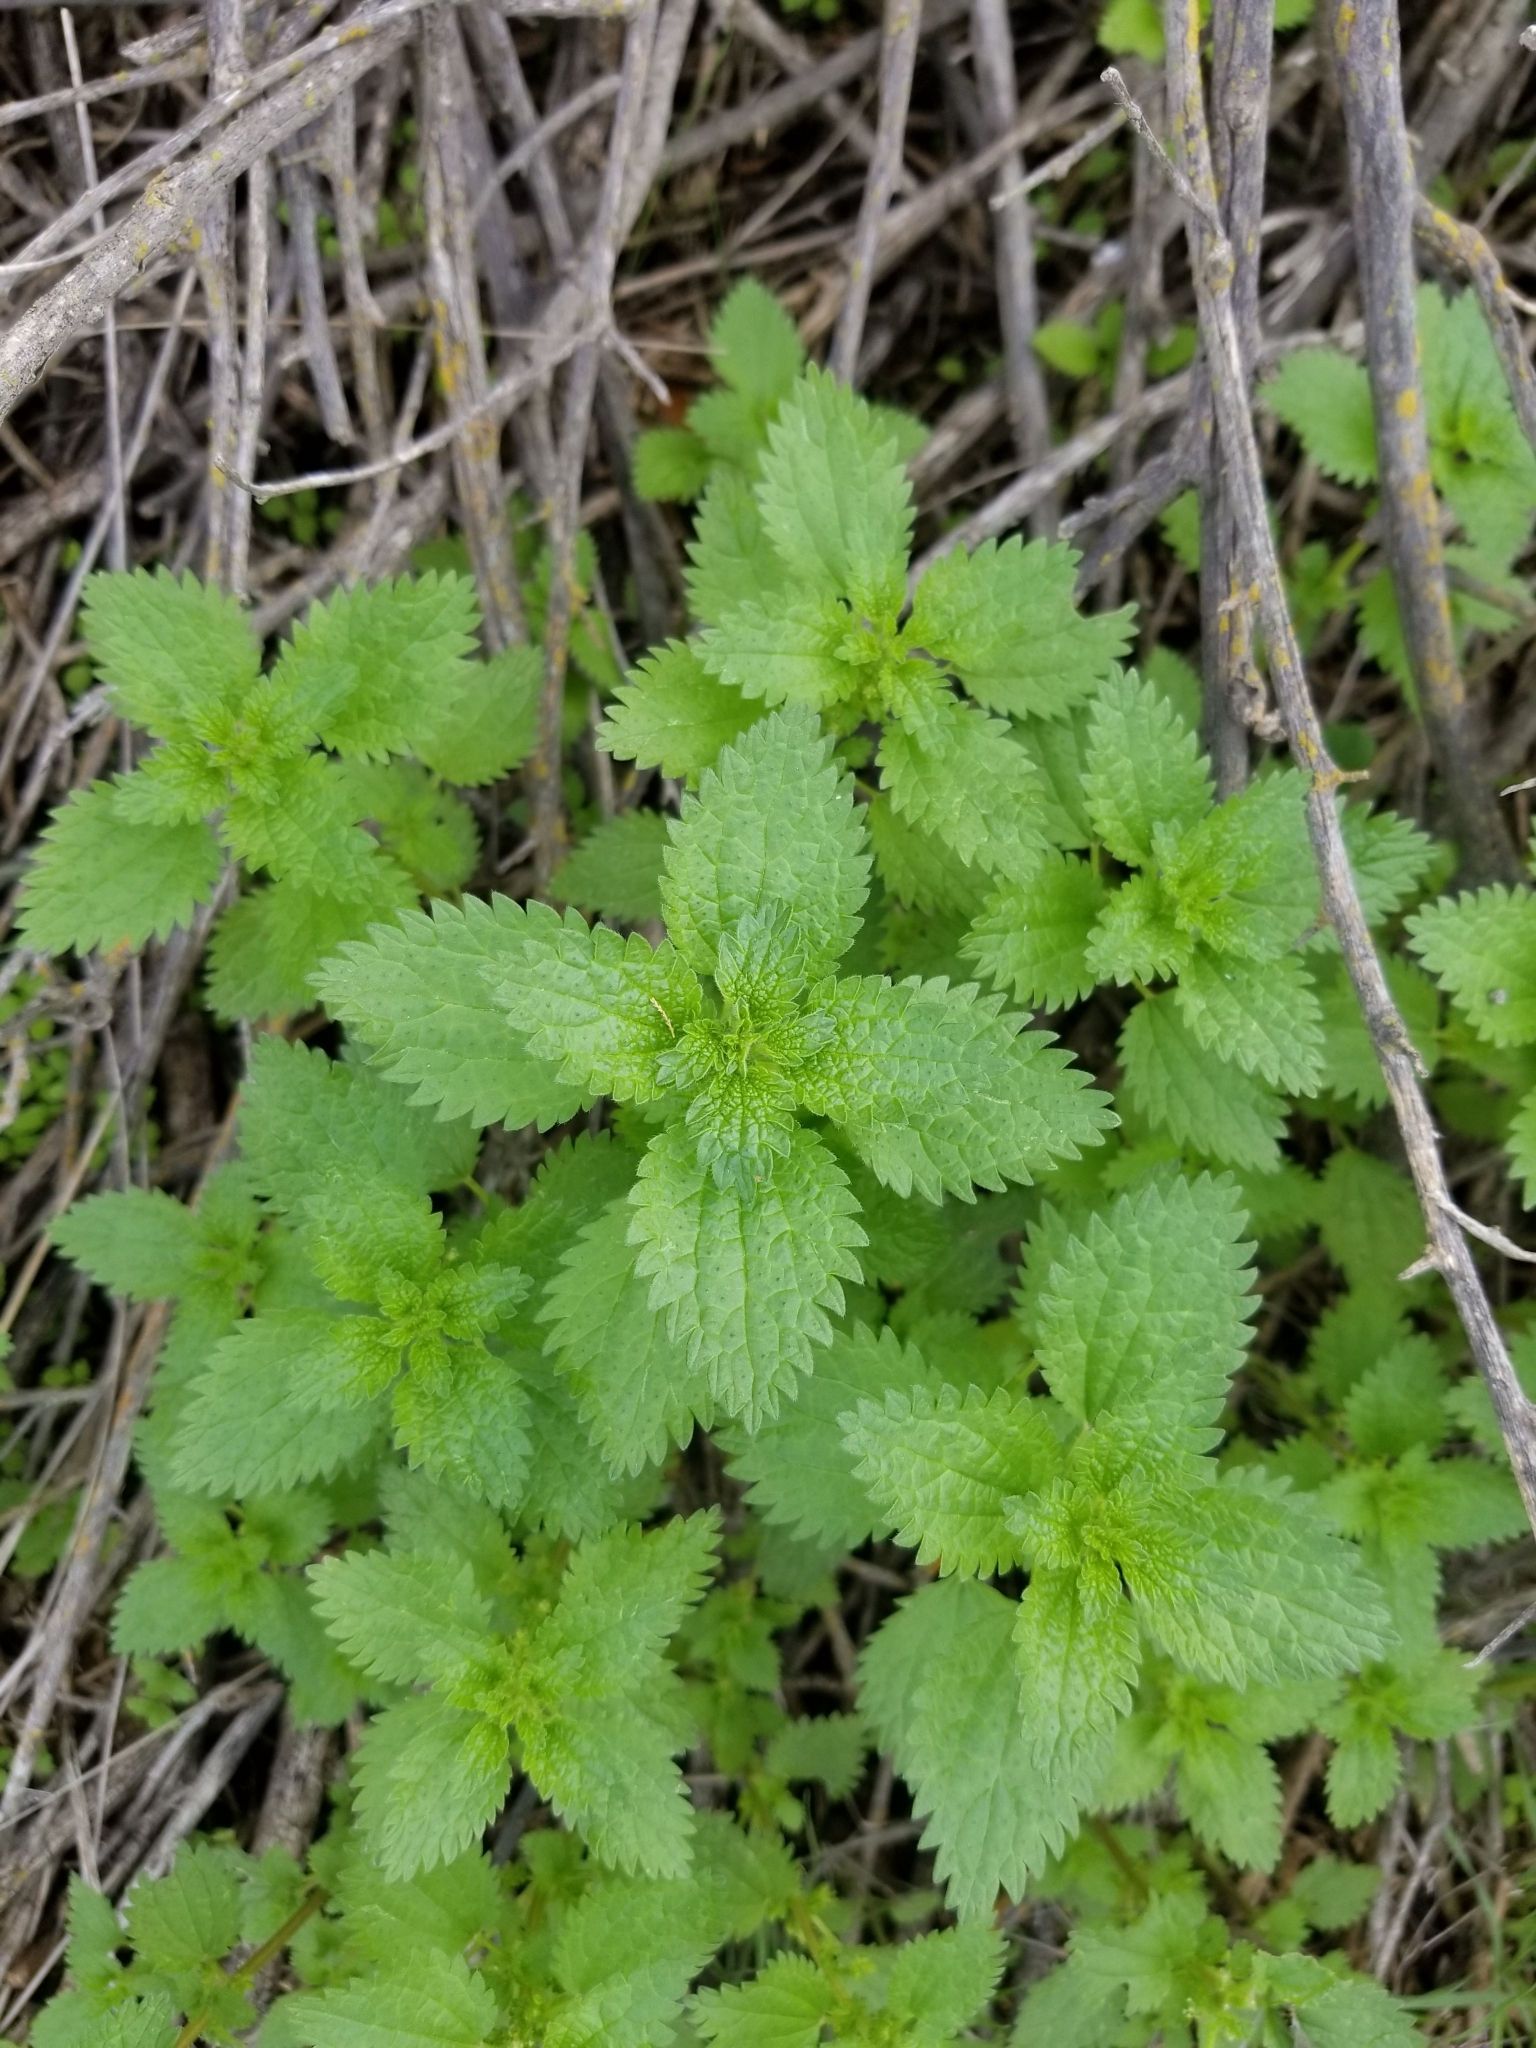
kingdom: Plantae
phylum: Tracheophyta
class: Magnoliopsida
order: Rosales
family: Urticaceae
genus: Urtica
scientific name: Urtica urens
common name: Dwarf nettle
